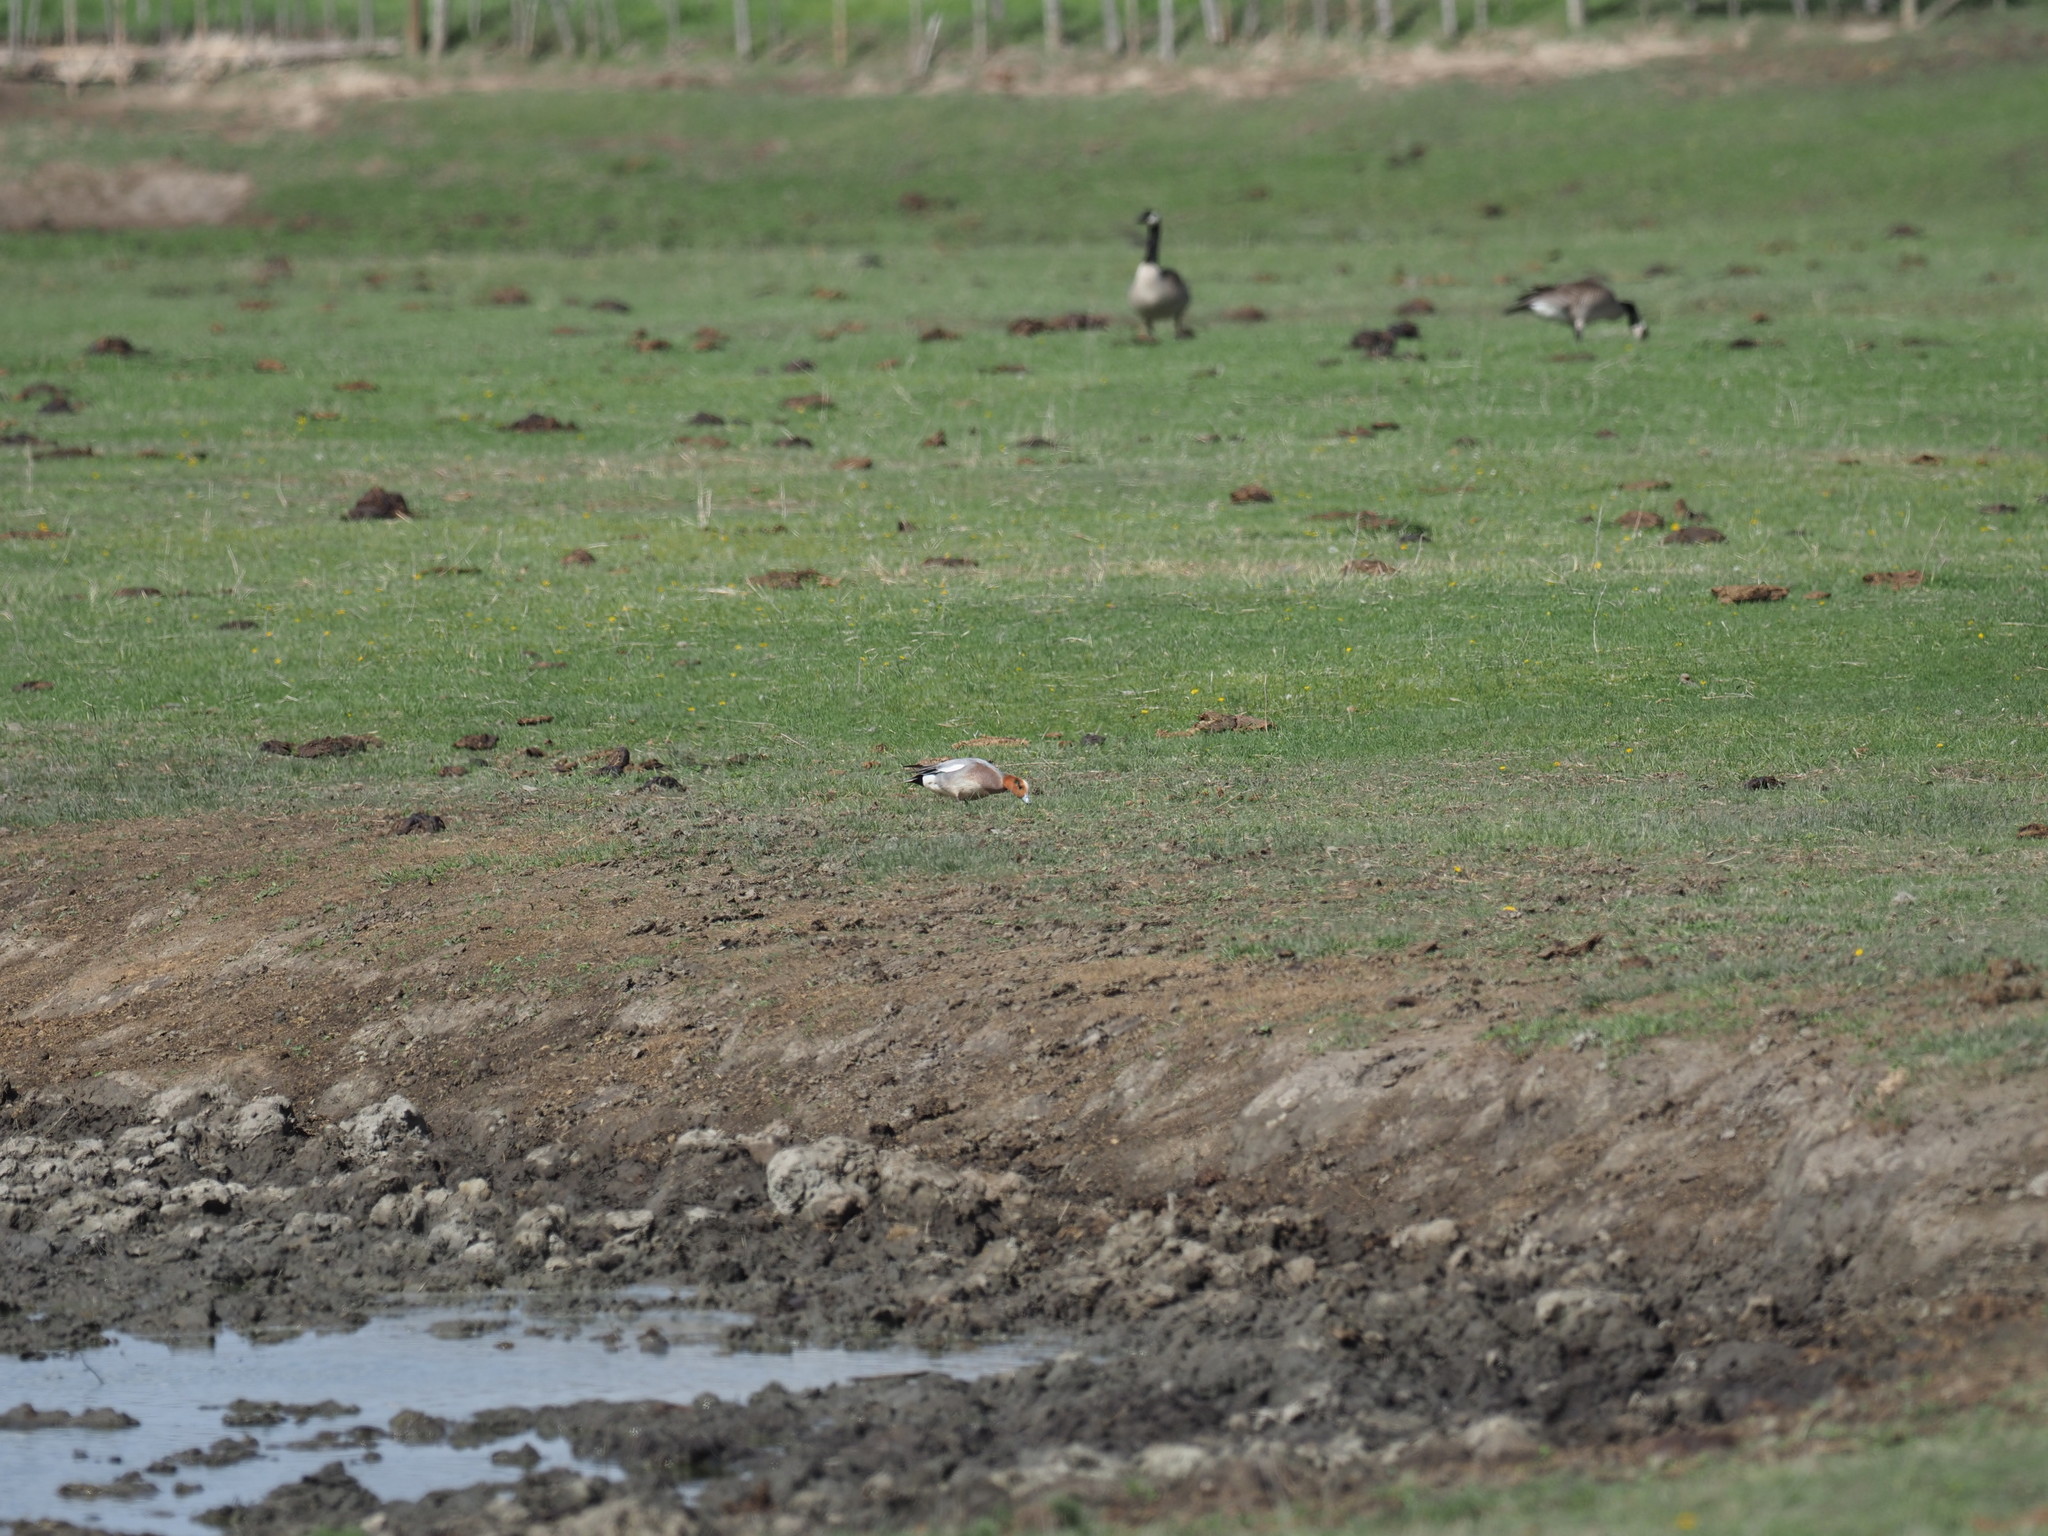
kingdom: Animalia
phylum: Chordata
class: Aves
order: Anseriformes
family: Anatidae
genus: Mareca
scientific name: Mareca
